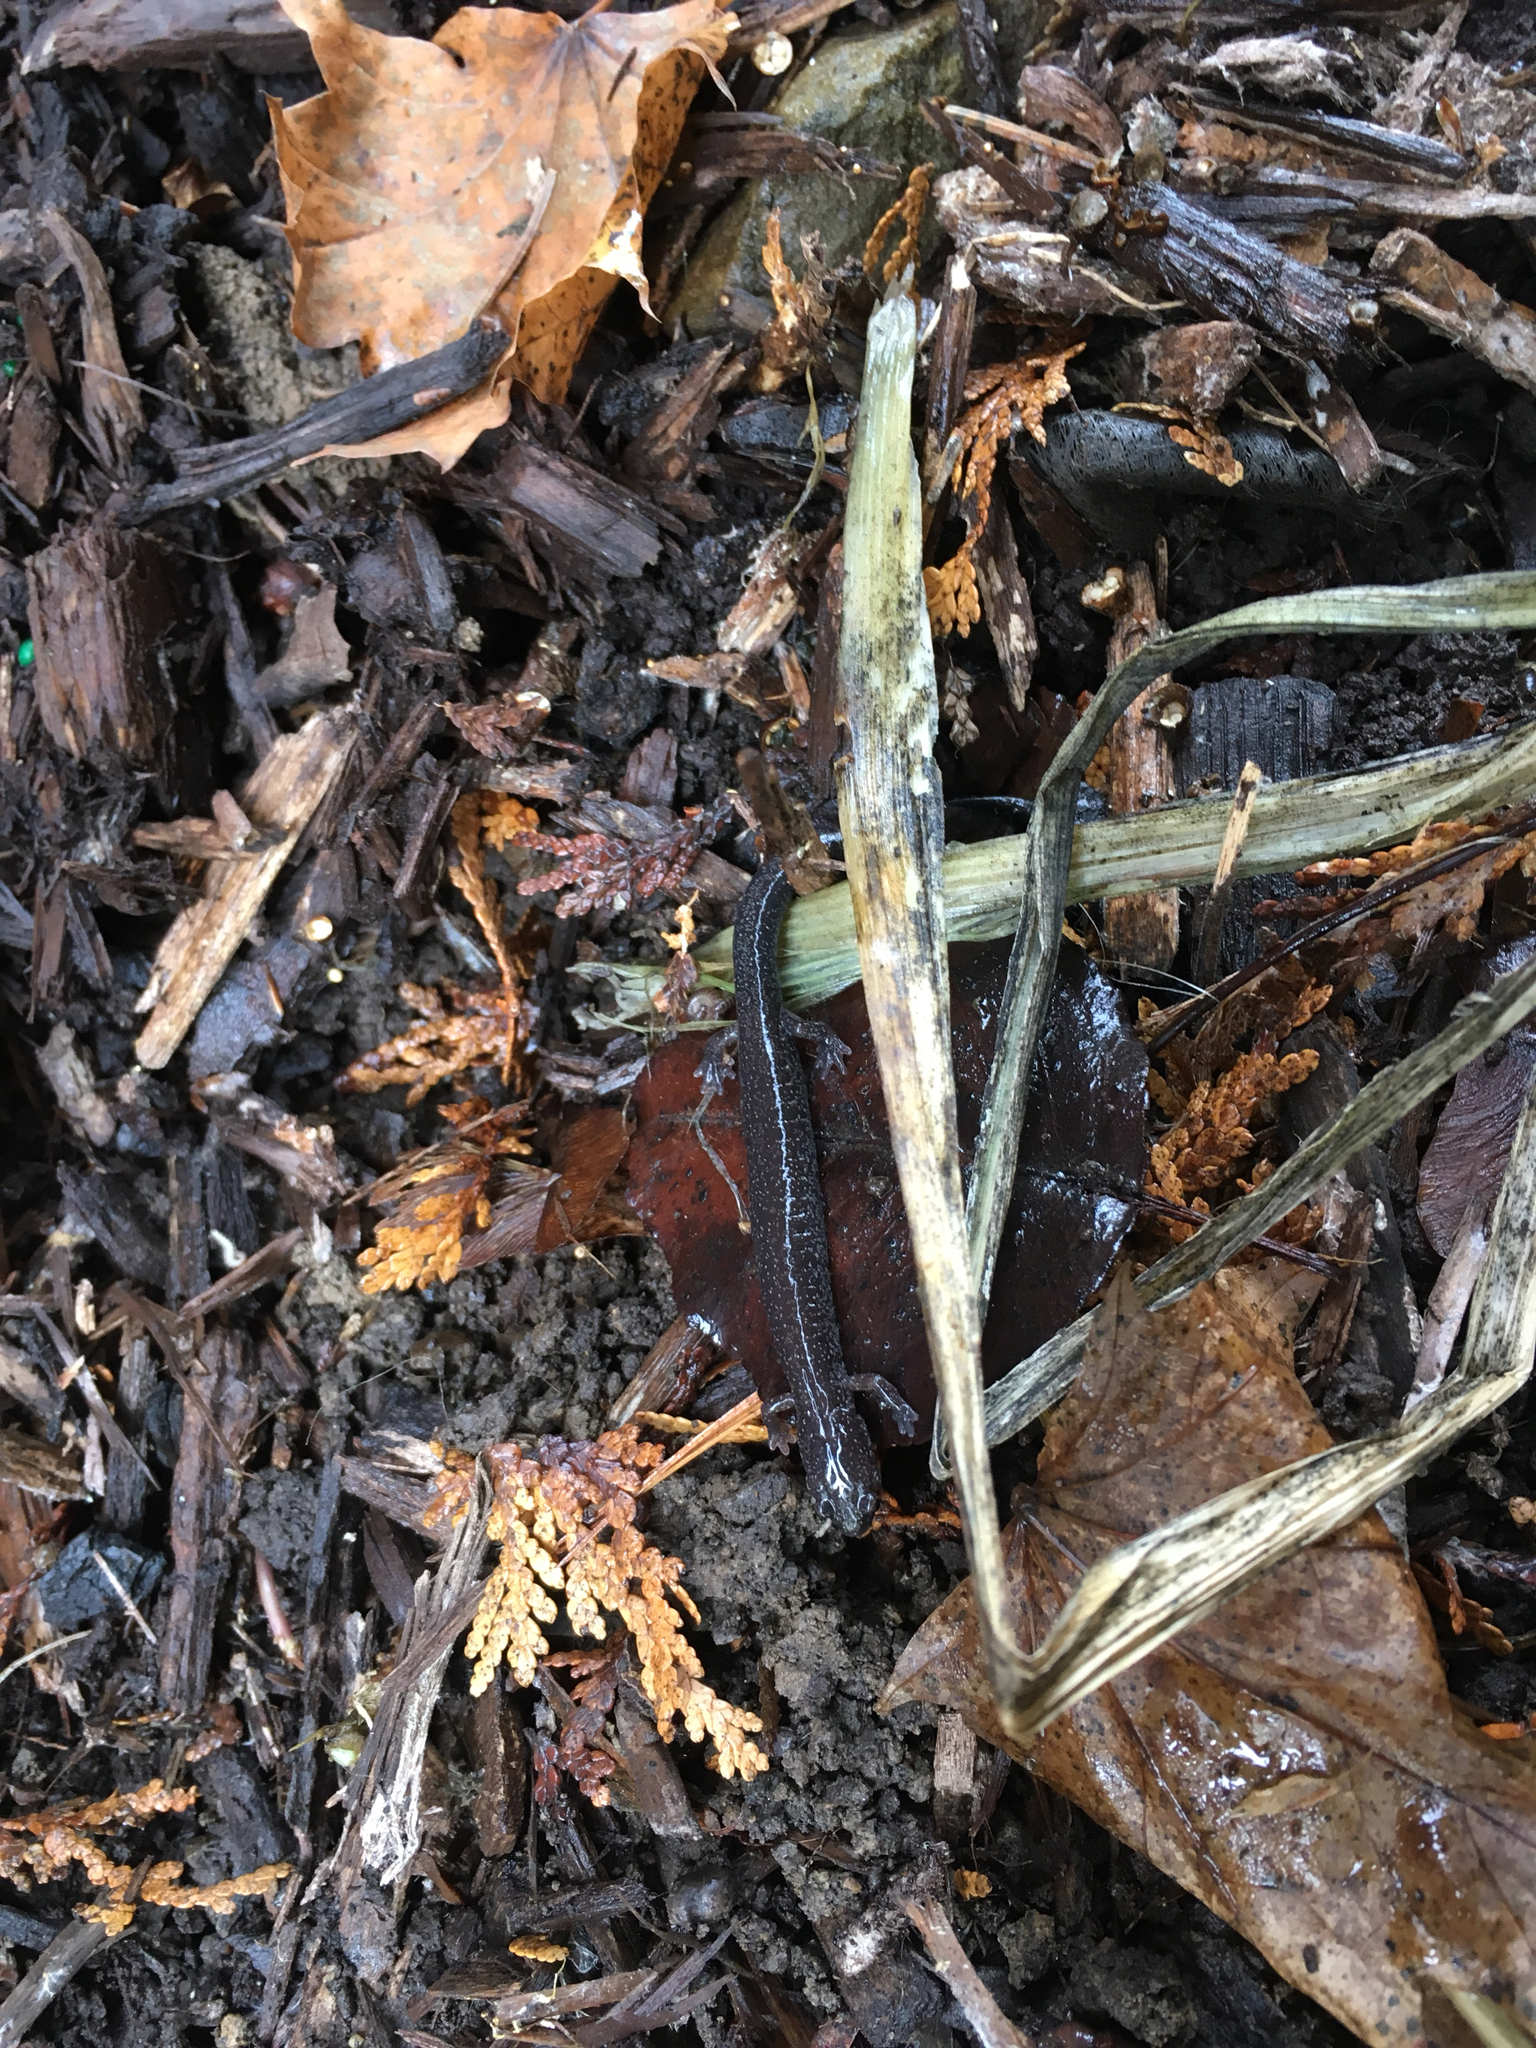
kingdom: Animalia
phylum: Chordata
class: Amphibia
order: Caudata
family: Plethodontidae
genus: Plethodon
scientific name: Plethodon electromorphus
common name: Northern ravine salamander
